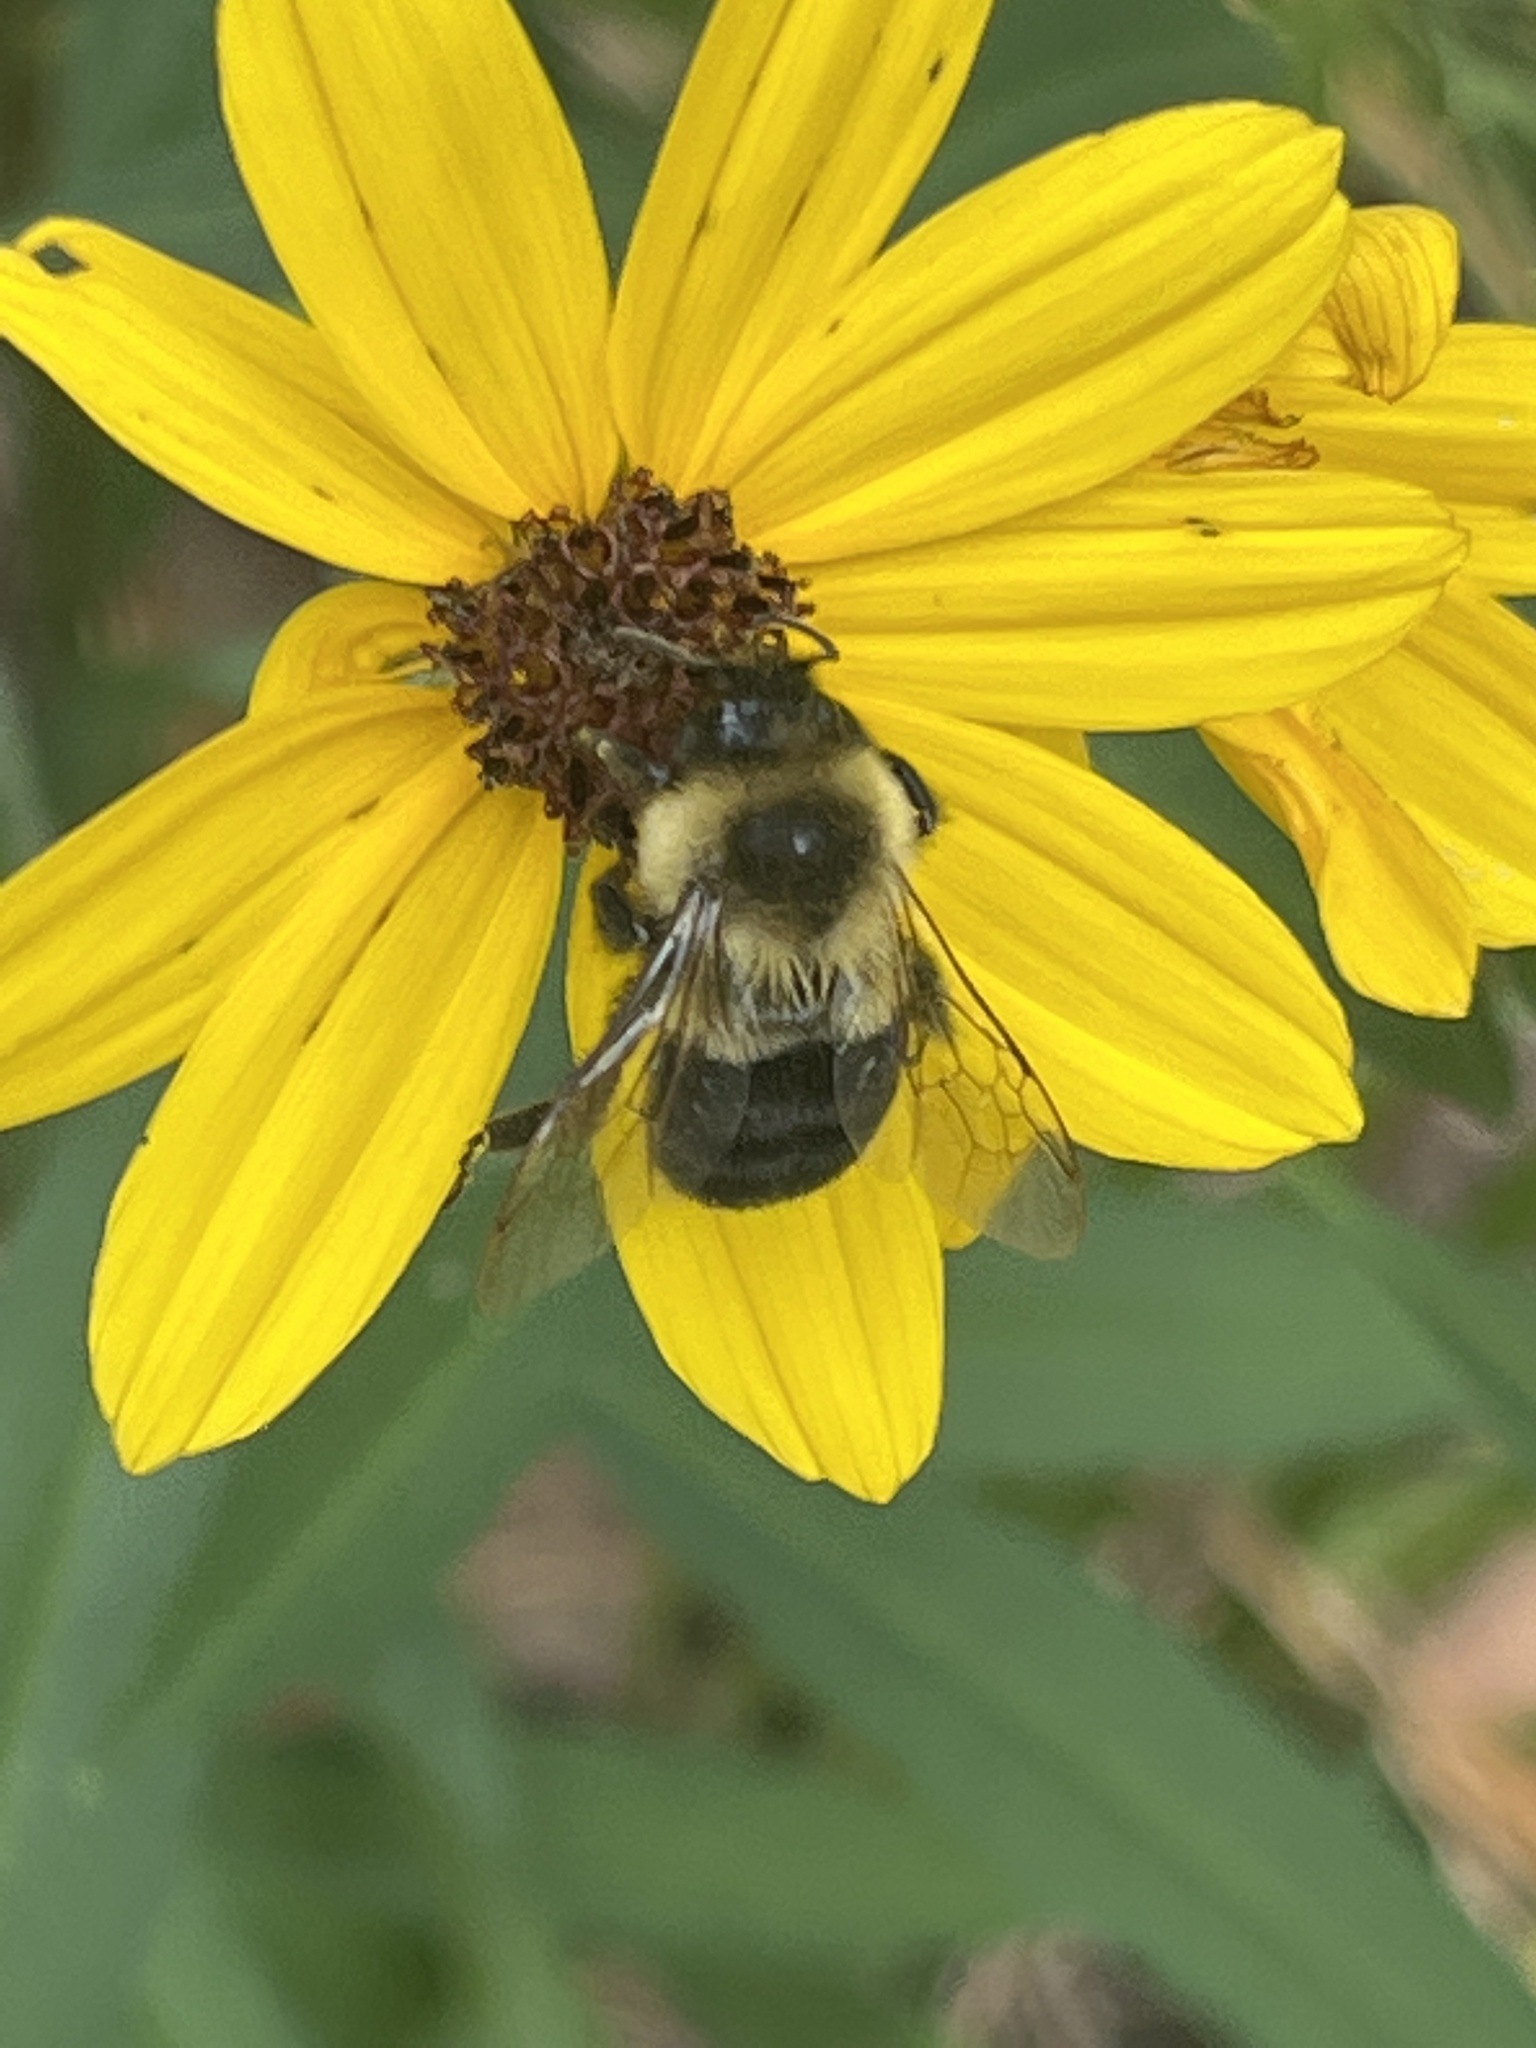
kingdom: Animalia
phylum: Arthropoda
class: Insecta
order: Hymenoptera
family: Apidae
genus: Bombus
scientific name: Bombus impatiens
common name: Common eastern bumble bee
